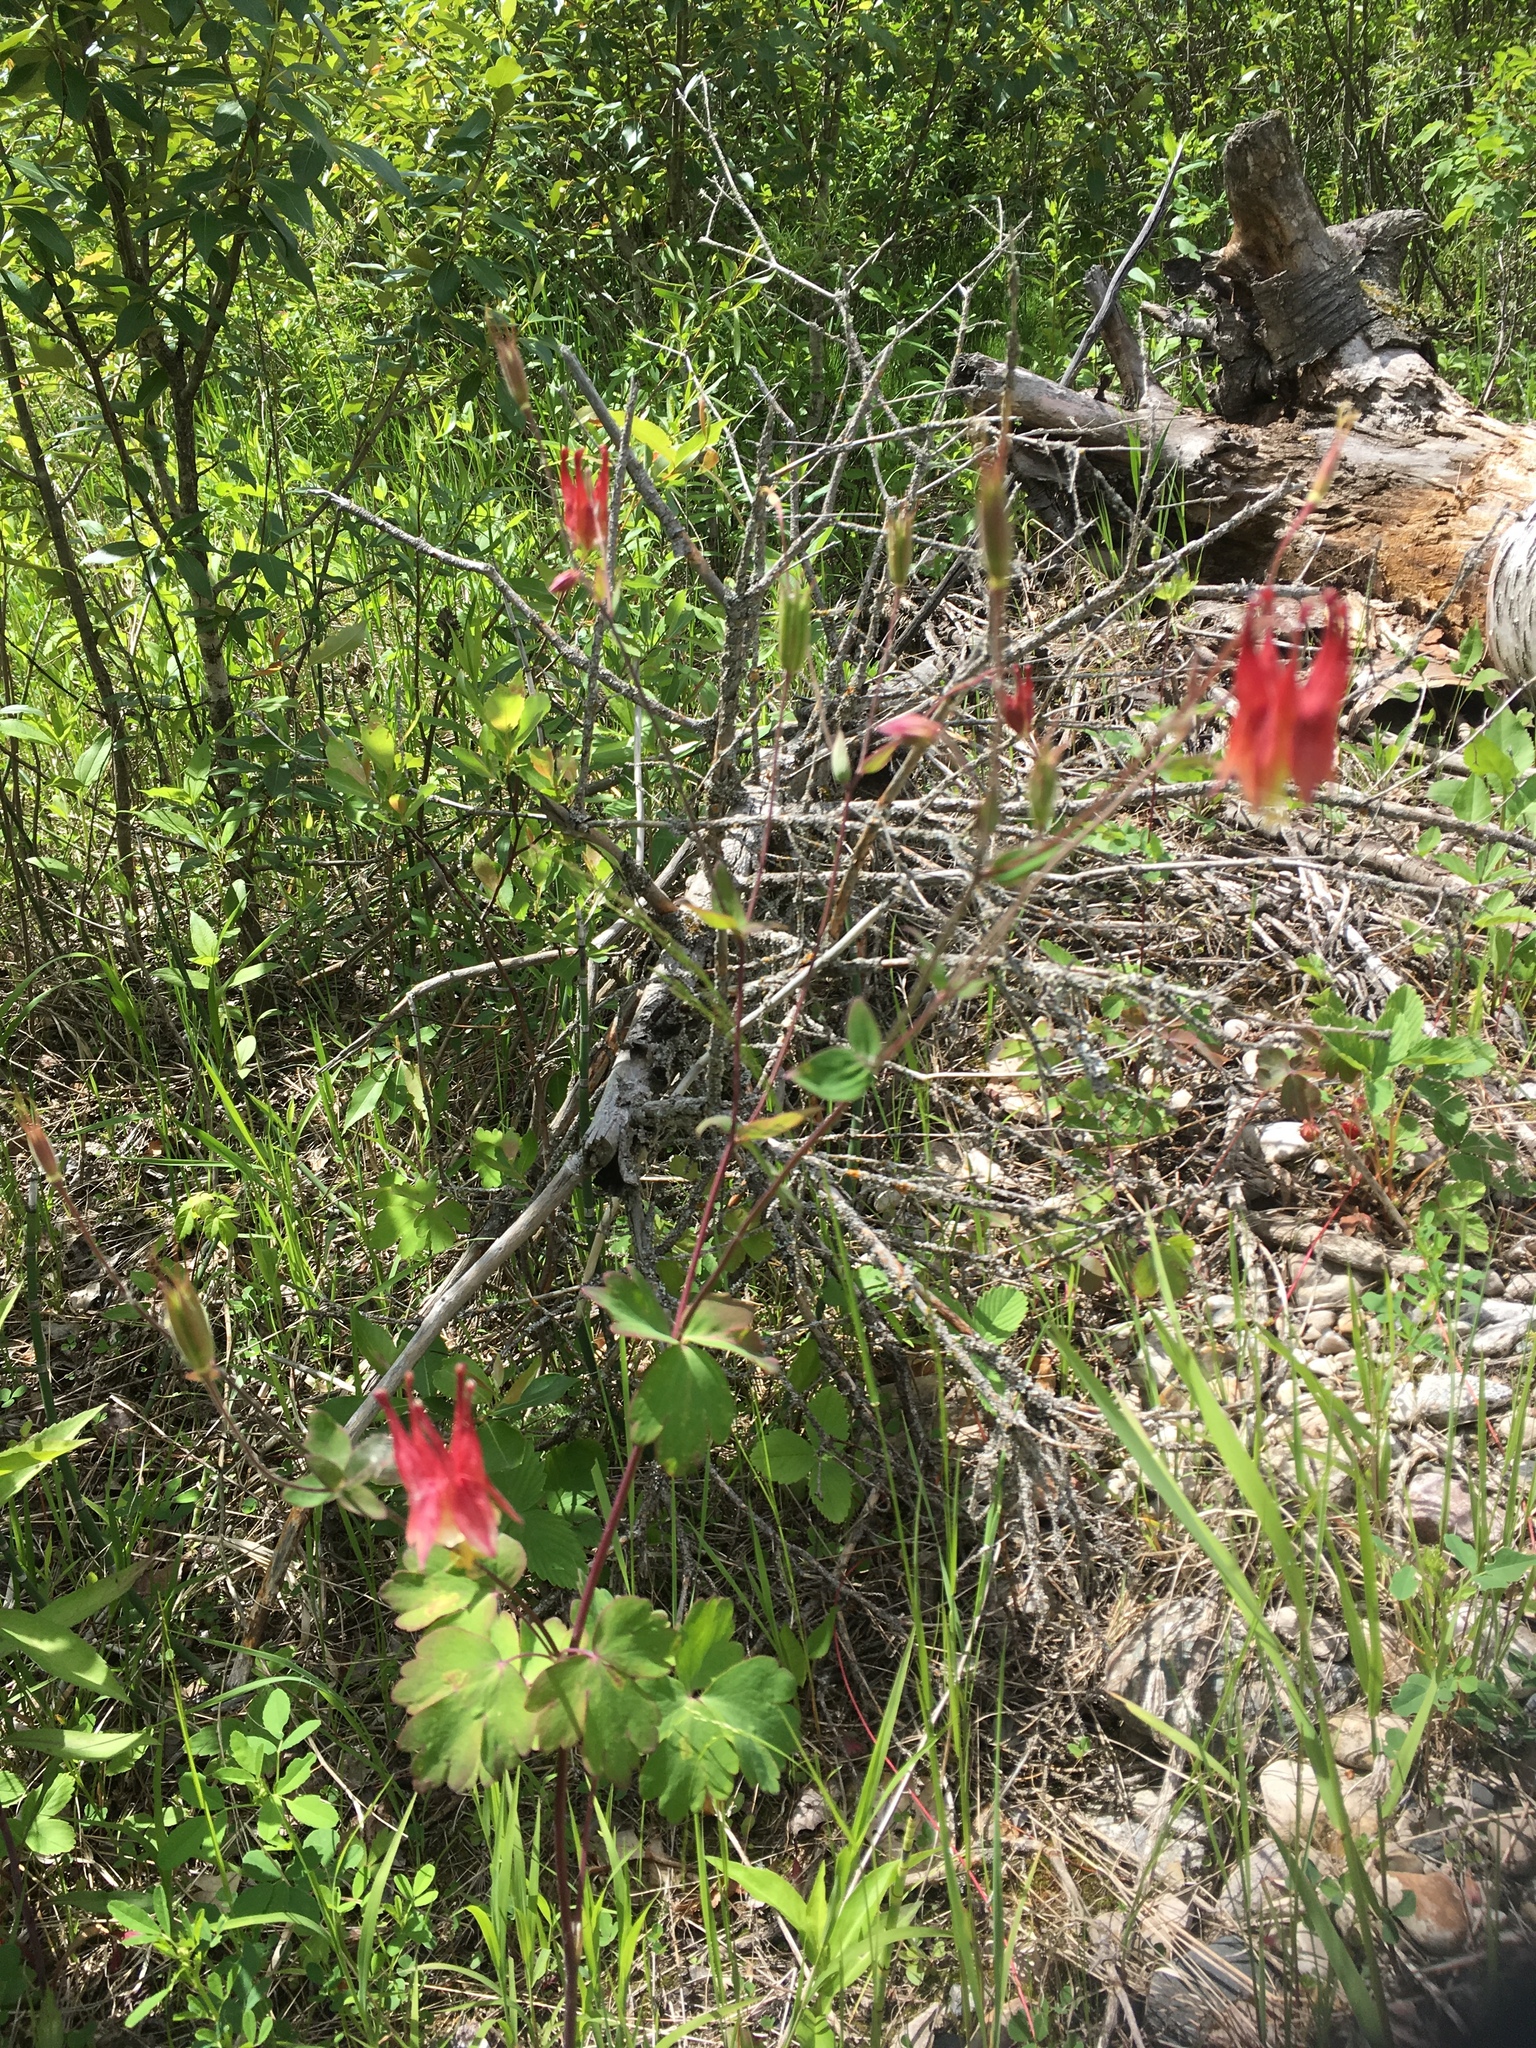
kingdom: Plantae
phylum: Tracheophyta
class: Magnoliopsida
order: Ranunculales
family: Ranunculaceae
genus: Aquilegia
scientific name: Aquilegia canadensis
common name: American columbine
